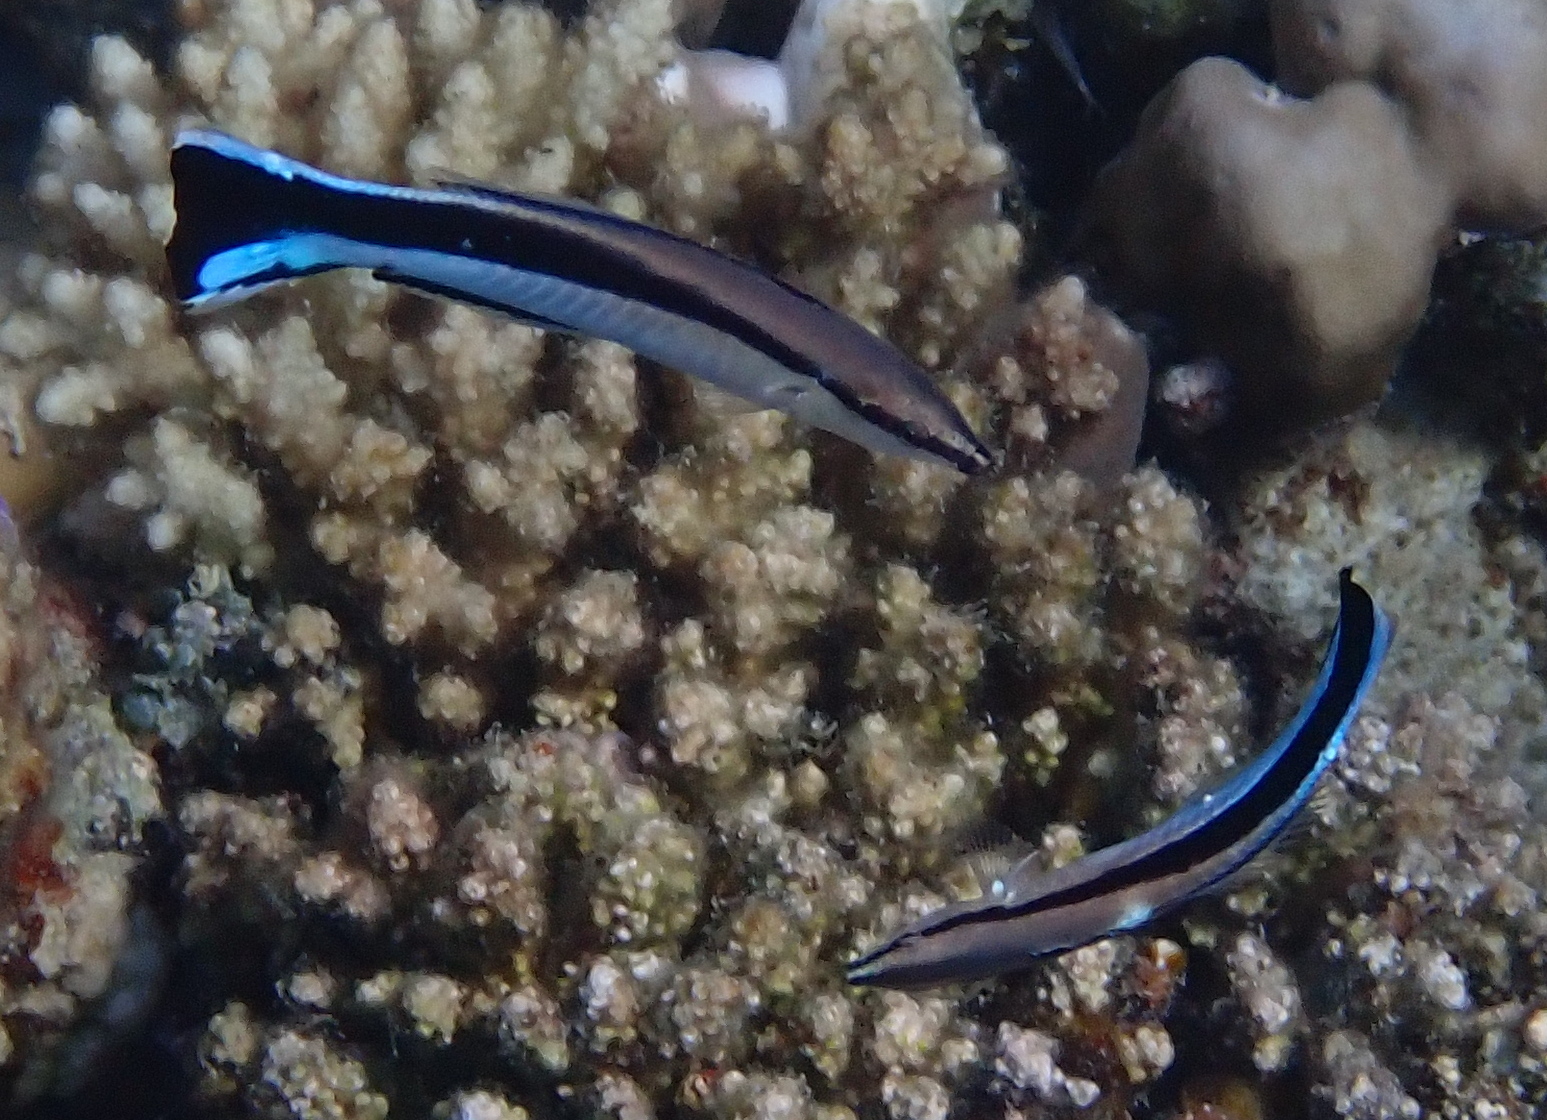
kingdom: Animalia
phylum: Chordata
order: Perciformes
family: Labridae
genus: Labroides
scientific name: Labroides dimidiatus
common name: Blue diesel wrasse
